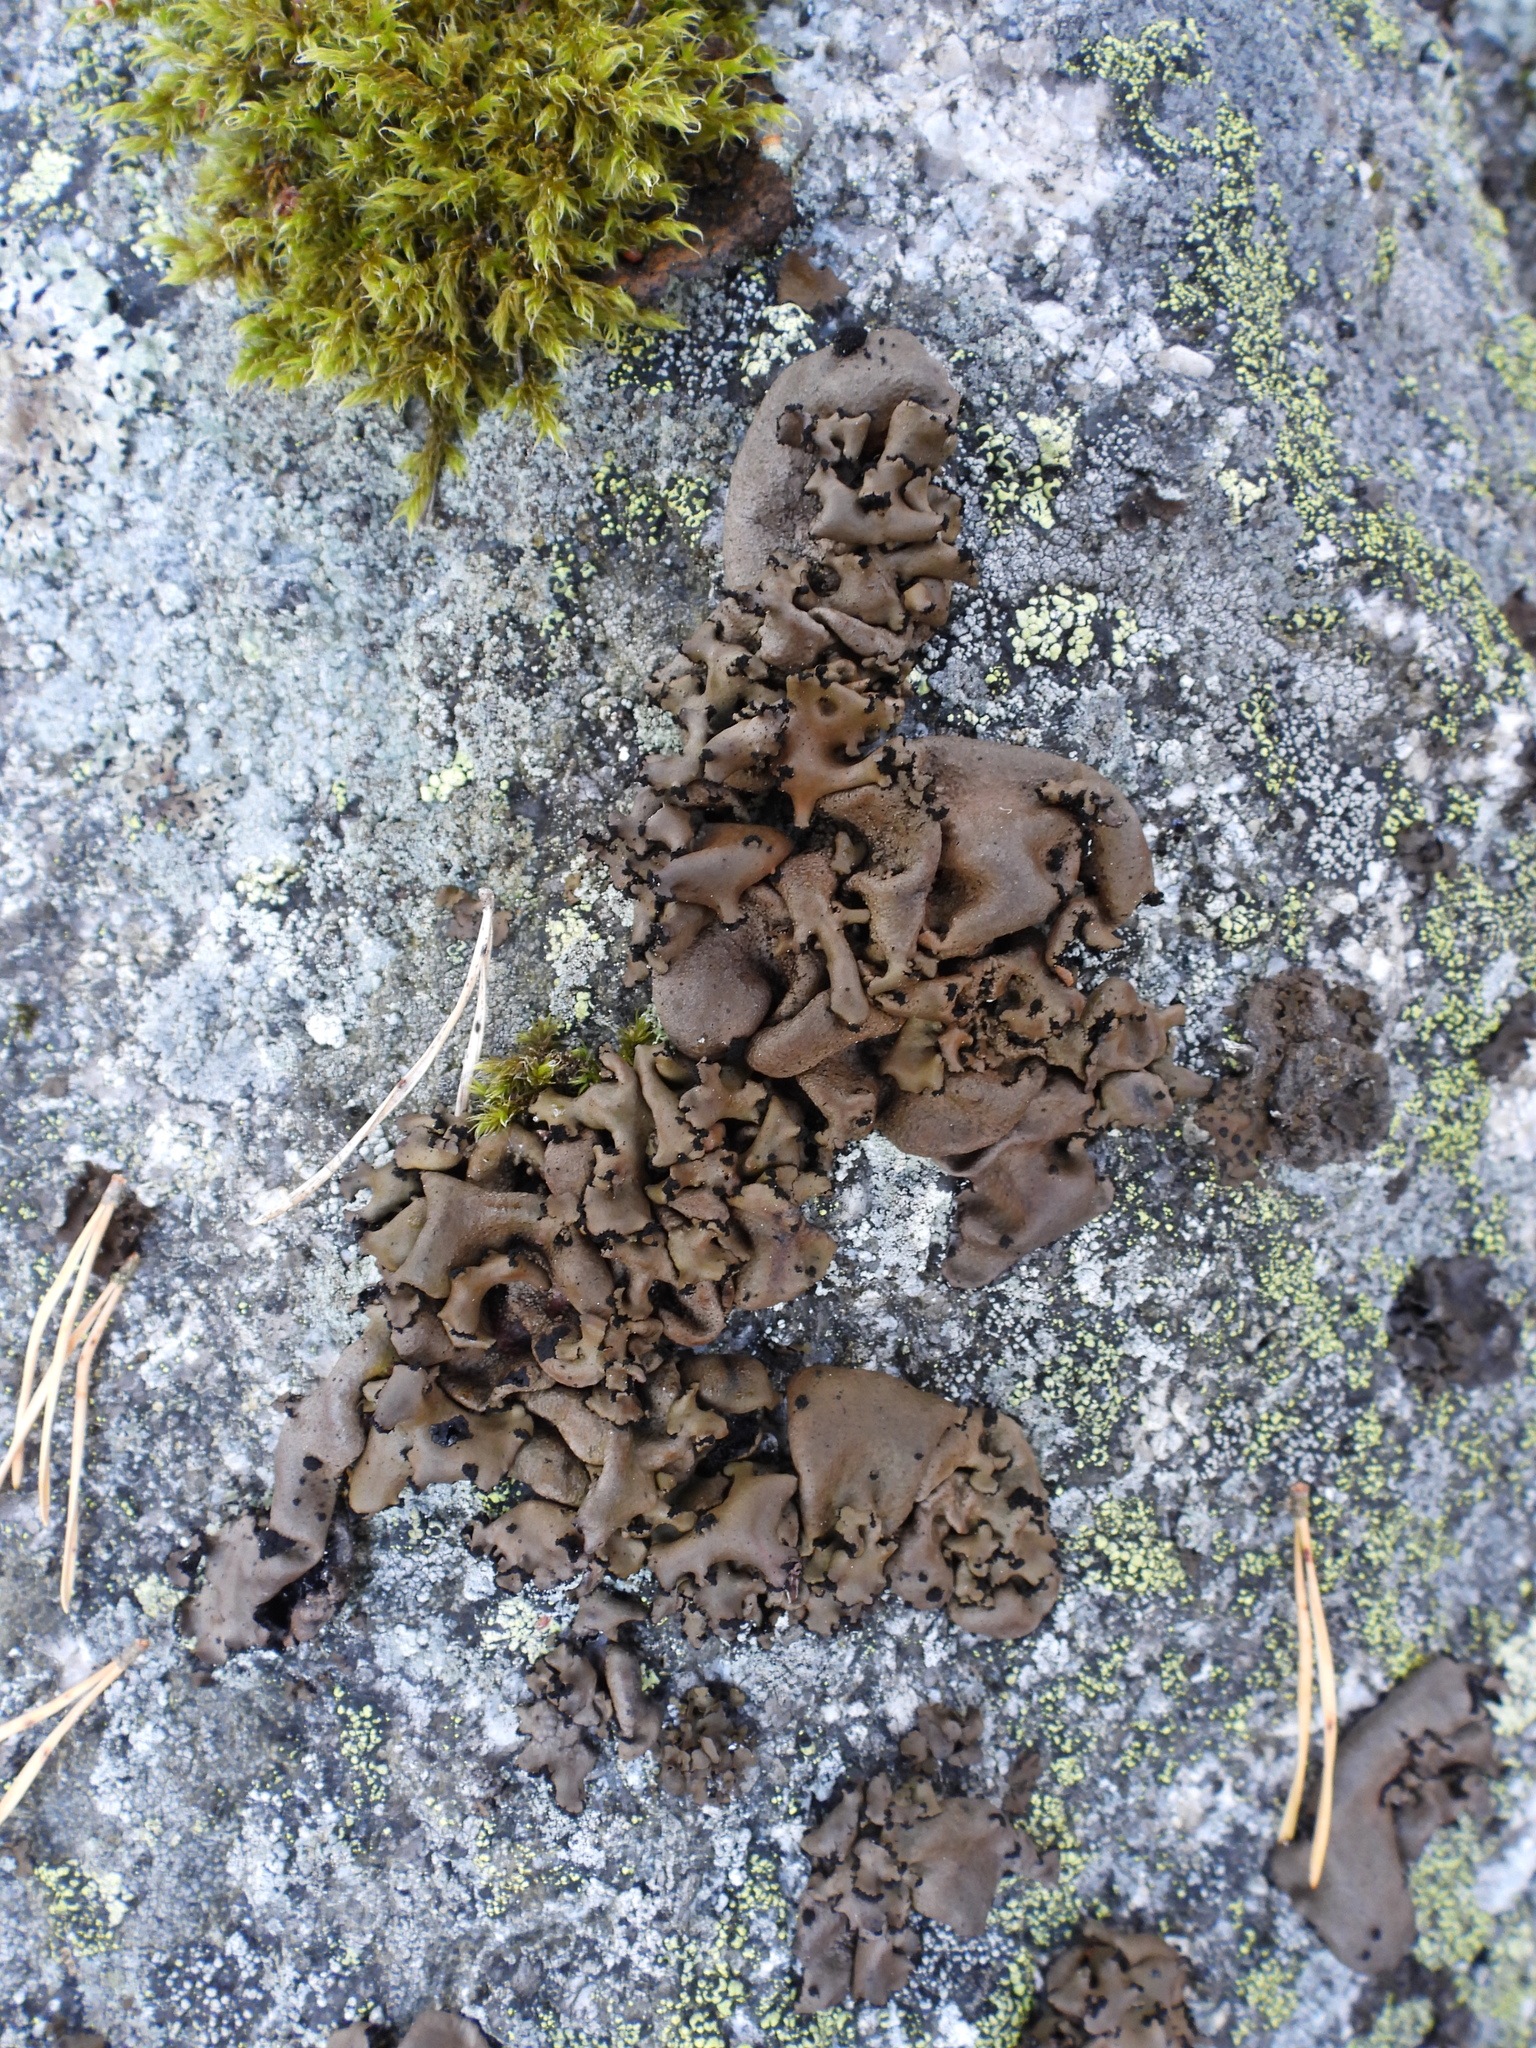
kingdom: Fungi
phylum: Ascomycota
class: Lecanoromycetes
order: Umbilicariales
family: Umbilicariaceae
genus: Umbilicaria
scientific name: Umbilicaria polyrrhiza
